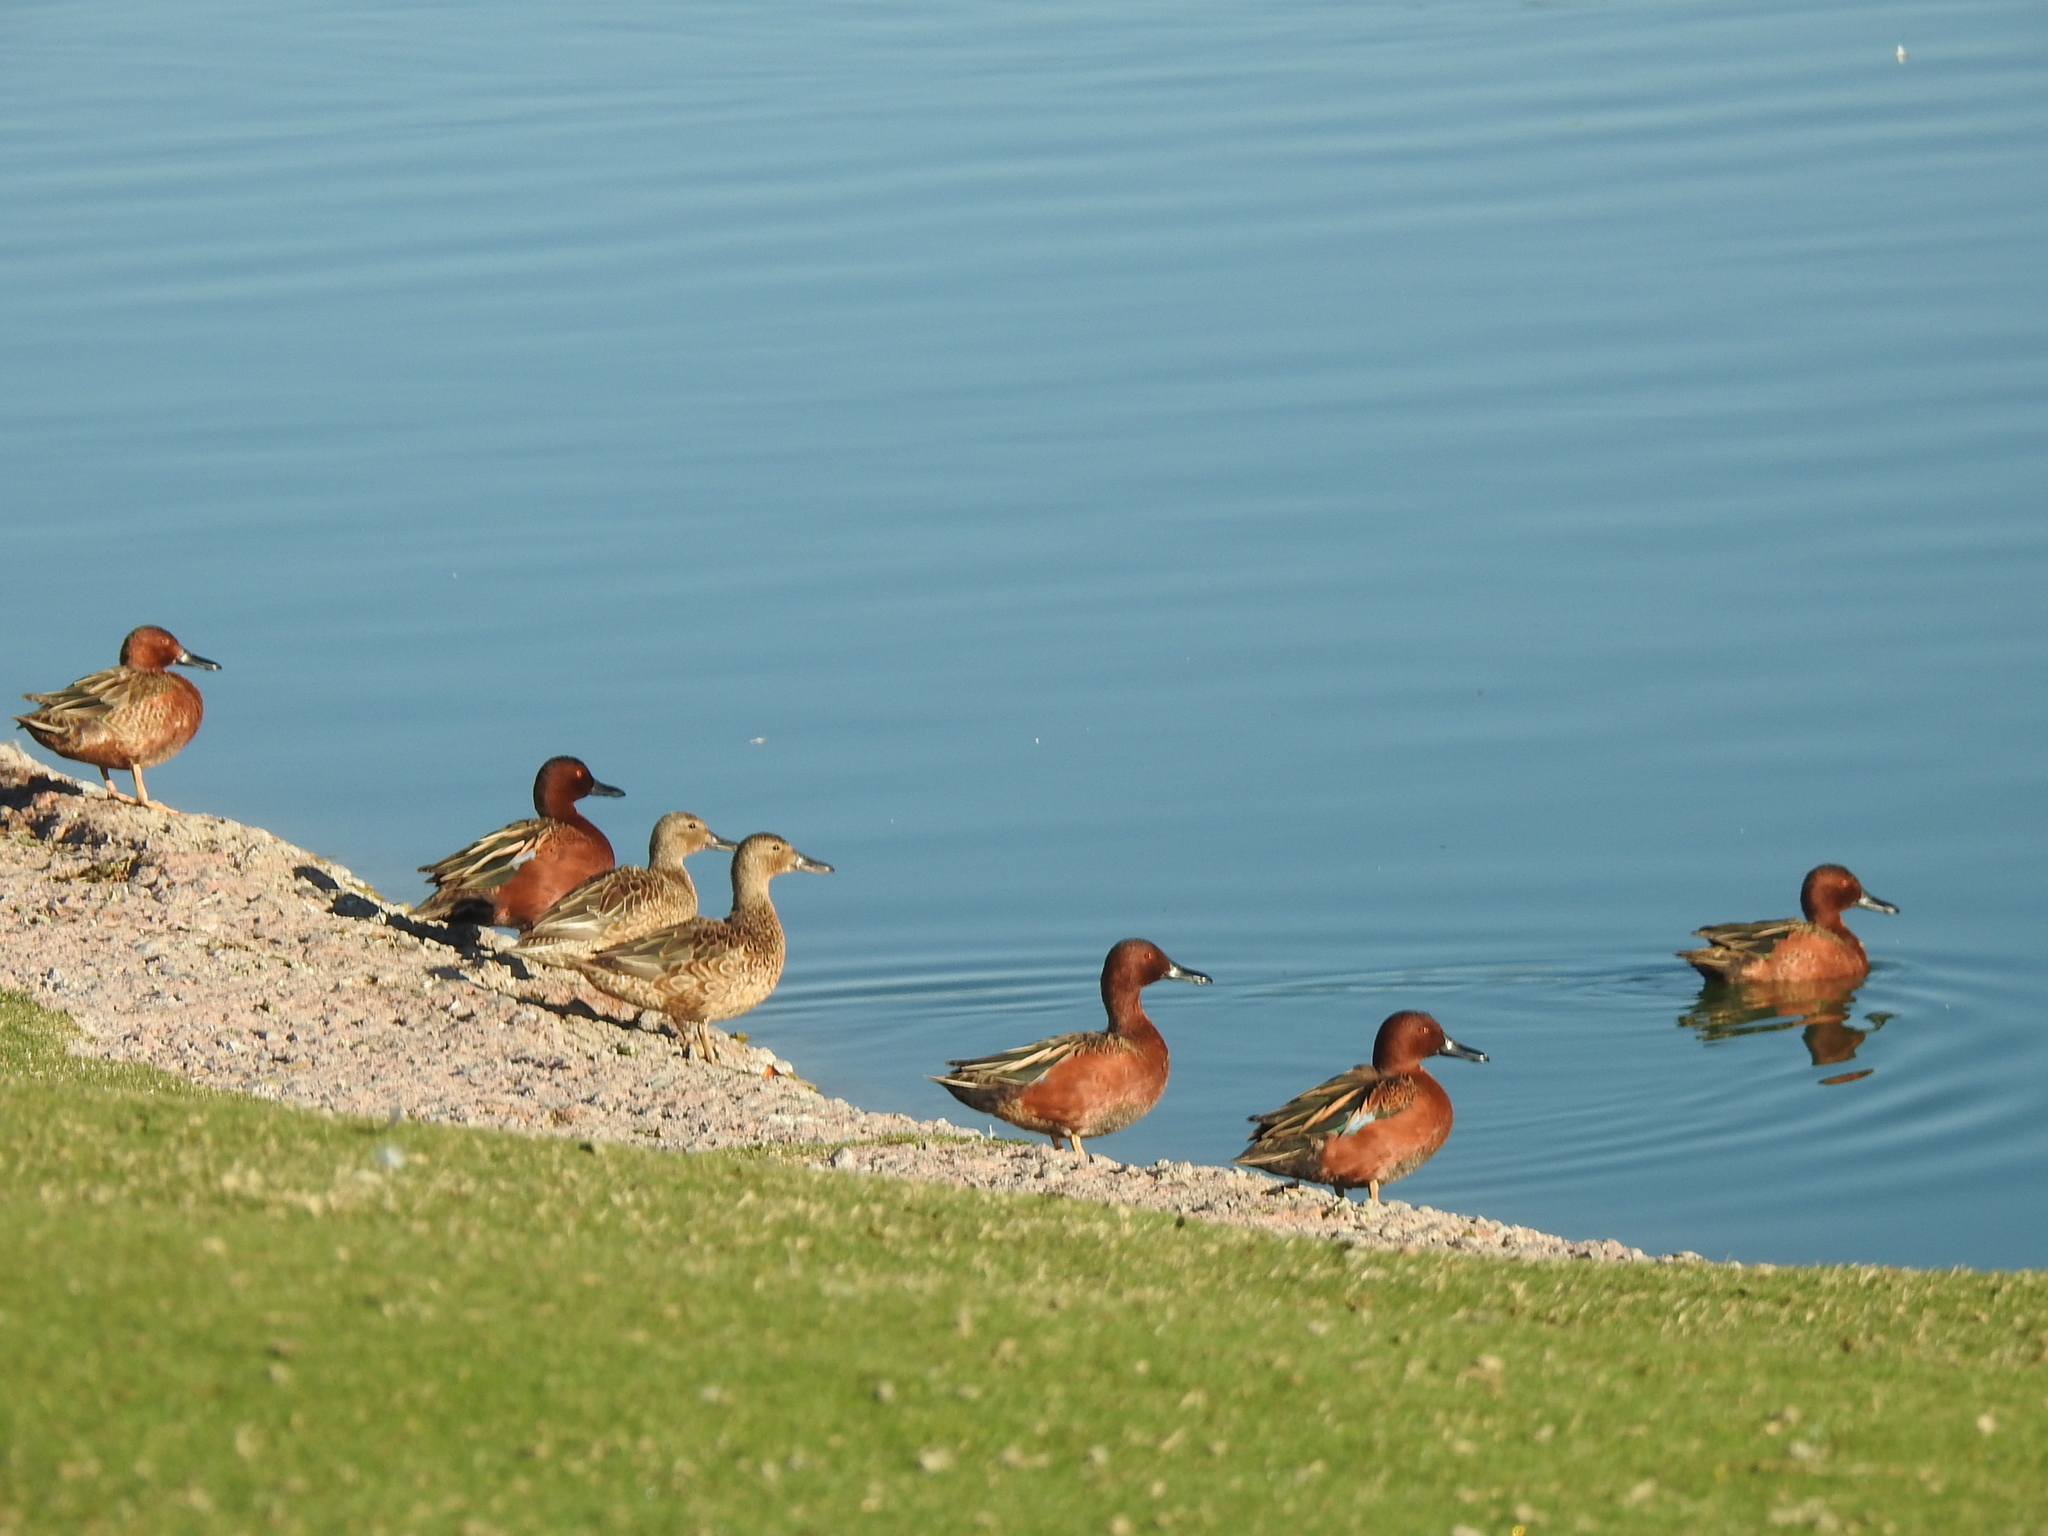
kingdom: Animalia
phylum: Chordata
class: Aves
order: Anseriformes
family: Anatidae
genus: Spatula
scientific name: Spatula cyanoptera
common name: Cinnamon teal
